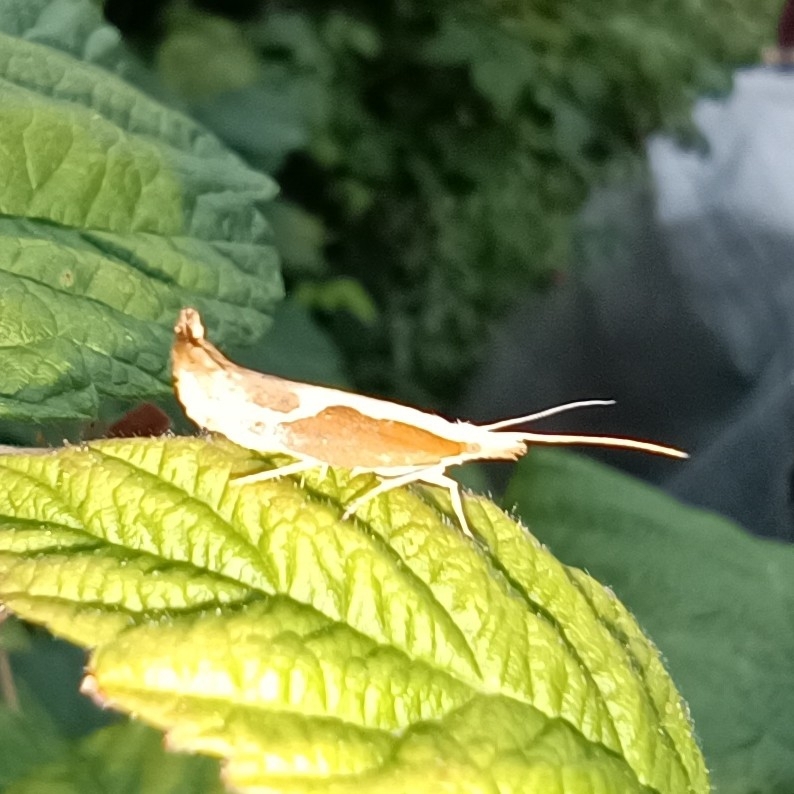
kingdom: Animalia
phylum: Arthropoda
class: Insecta
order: Lepidoptera
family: Ypsolophidae
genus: Ypsolopha
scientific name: Ypsolopha dentella
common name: Honeysuckle moth
